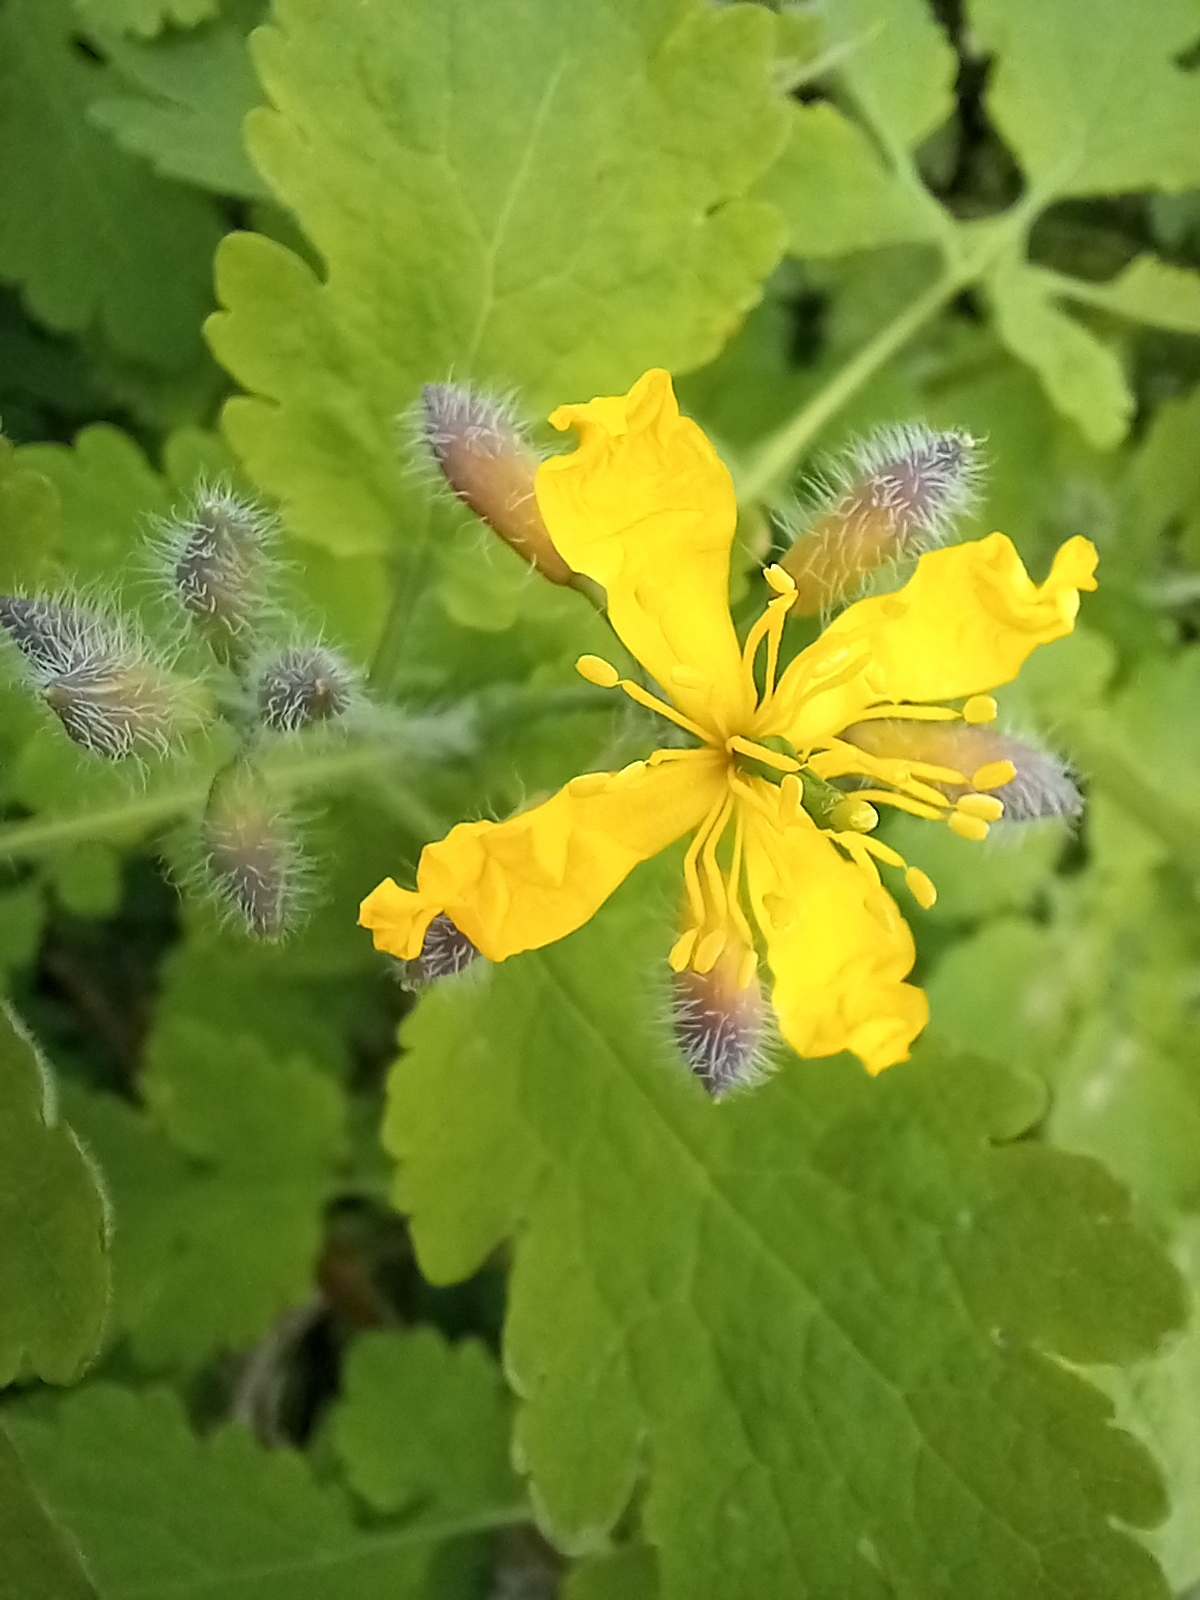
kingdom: Plantae
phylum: Tracheophyta
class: Magnoliopsida
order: Ranunculales
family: Papaveraceae
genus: Chelidonium
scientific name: Chelidonium majus
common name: Greater celandine
